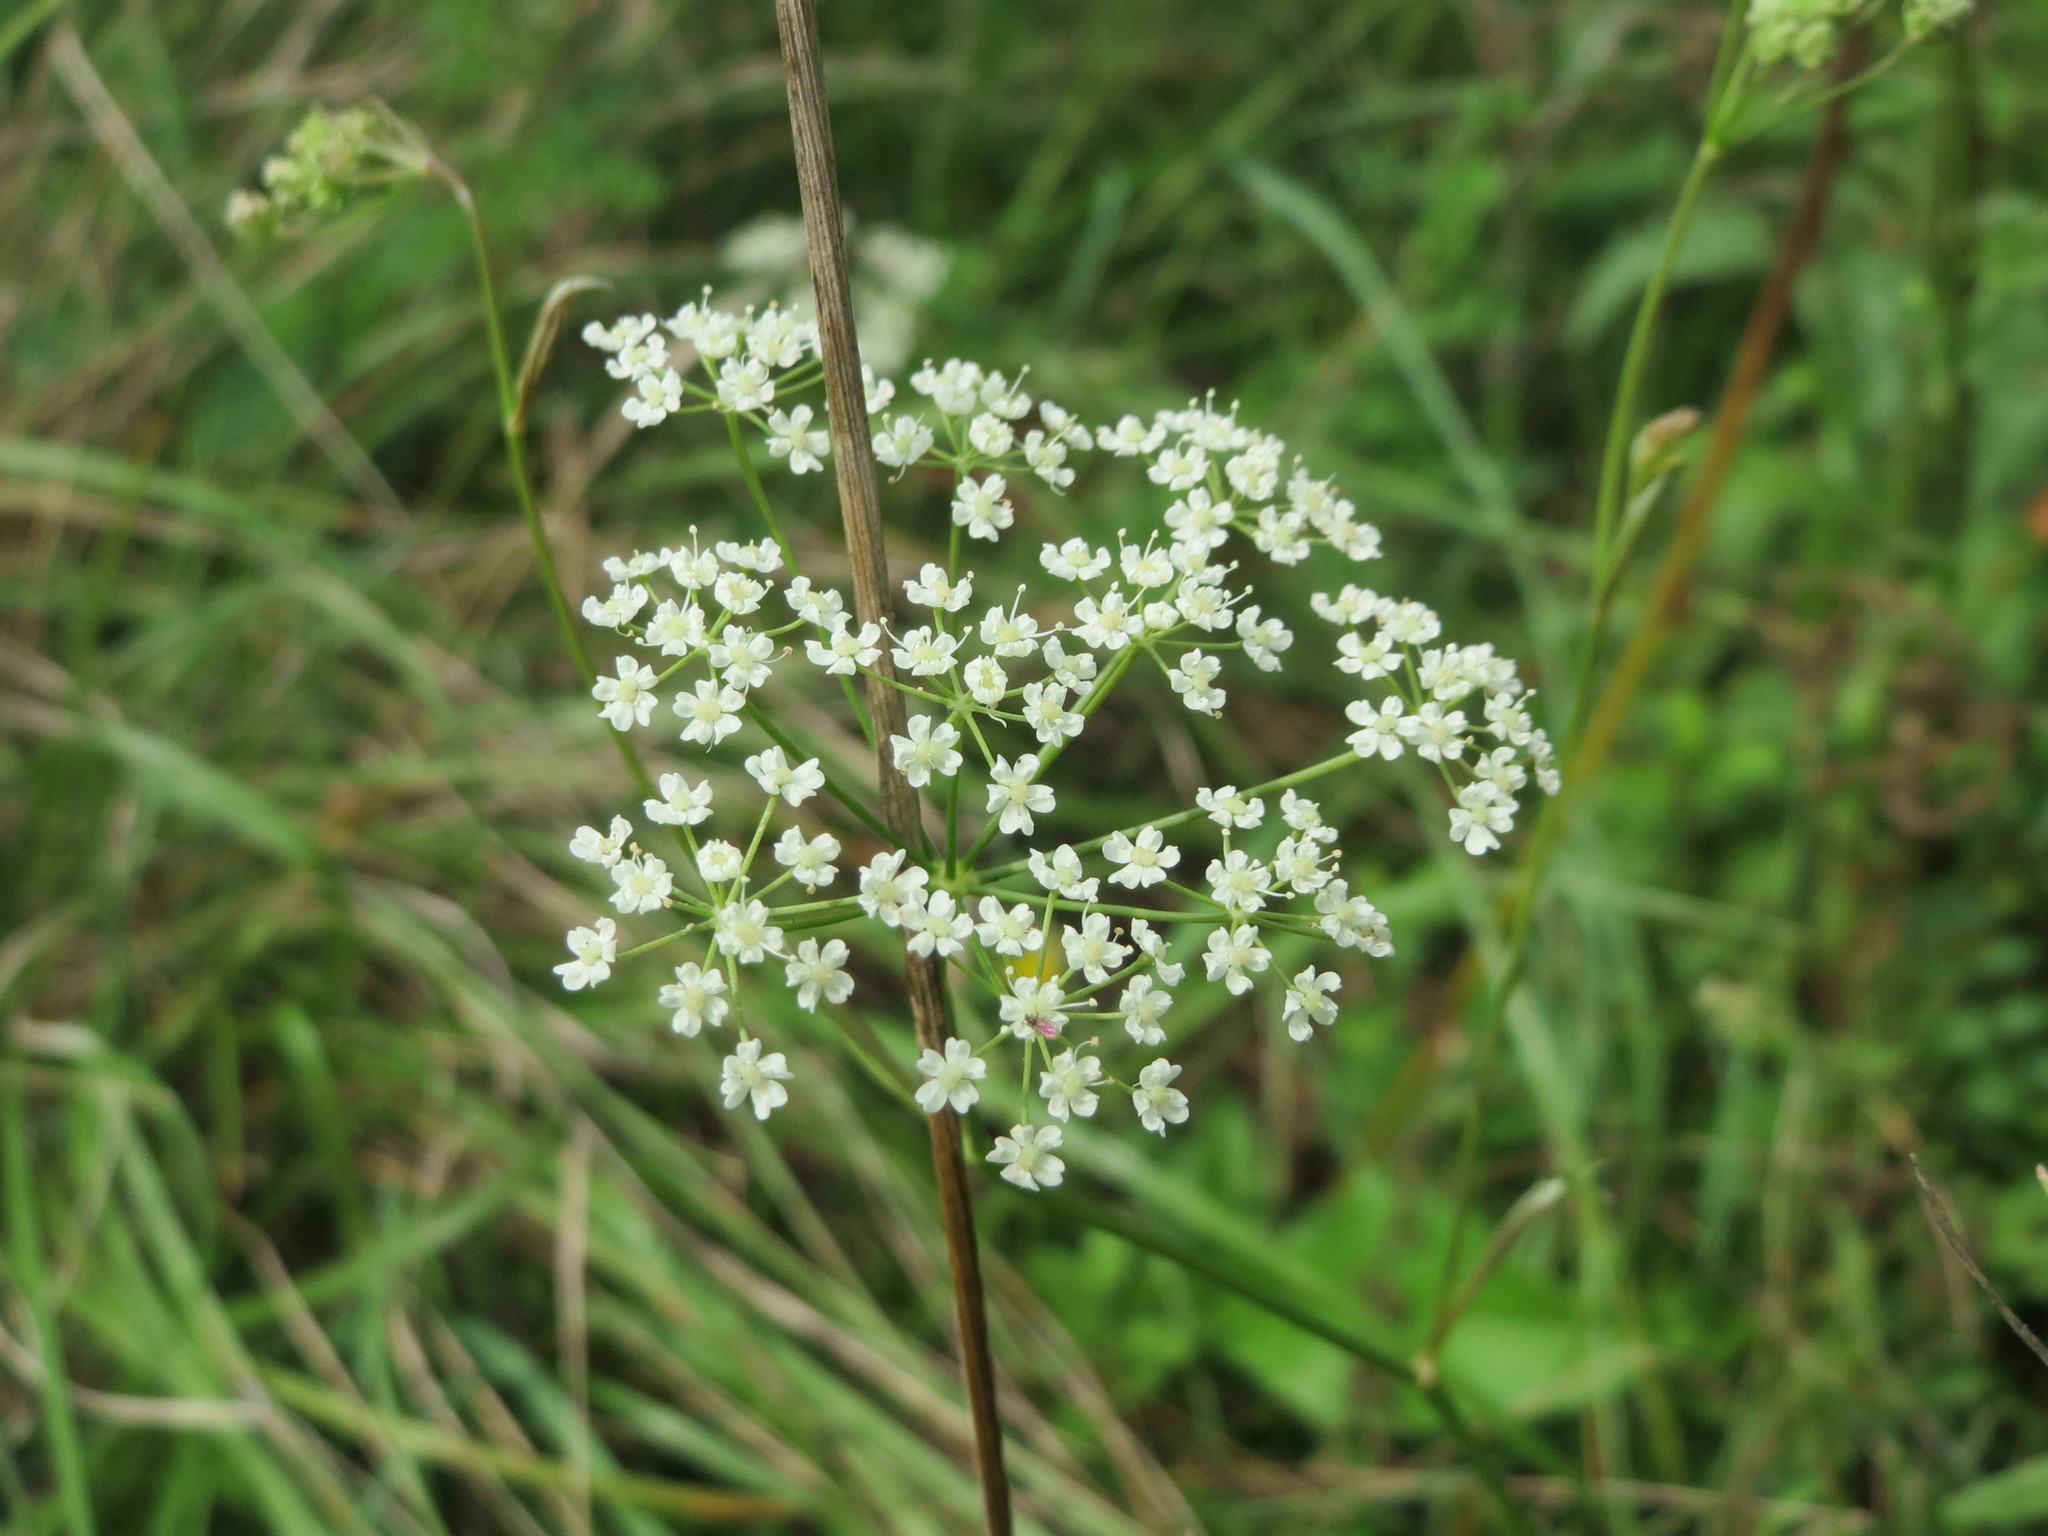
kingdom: Plantae
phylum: Tracheophyta
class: Magnoliopsida
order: Apiales
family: Apiaceae
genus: Pimpinella
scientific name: Pimpinella saxifraga
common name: Burnet-saxifrage
